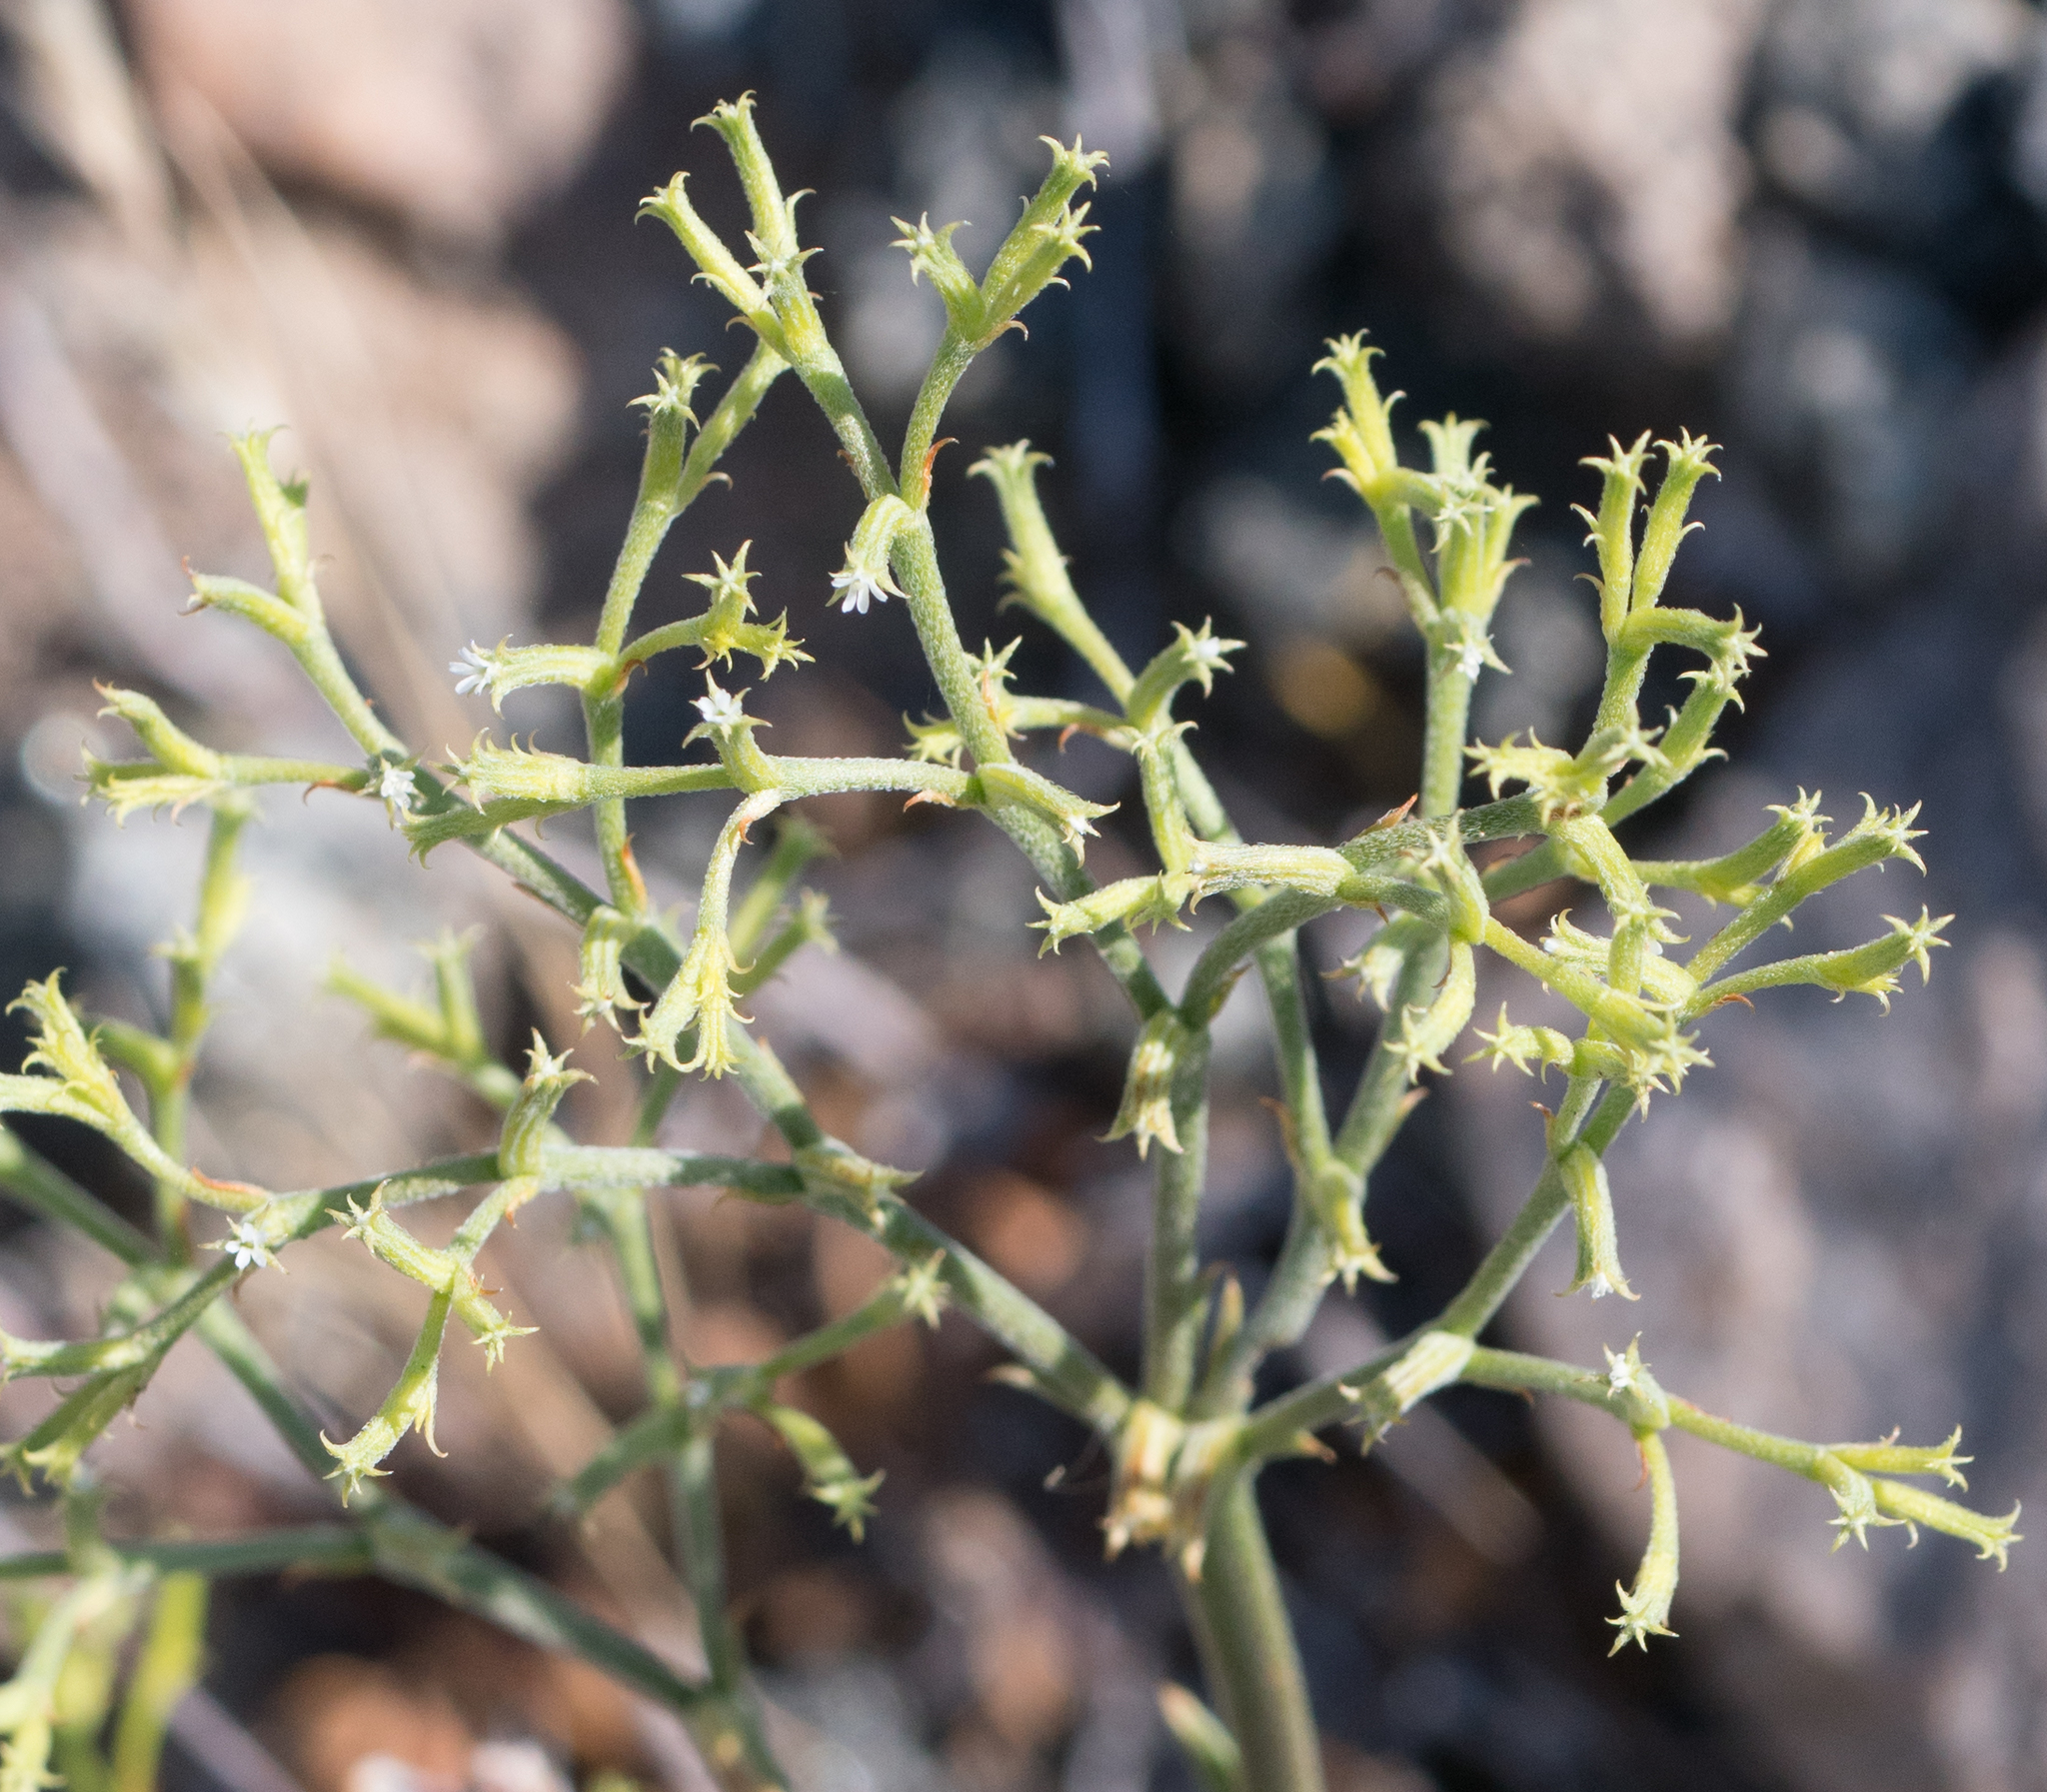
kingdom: Plantae
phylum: Tracheophyta
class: Magnoliopsida
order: Caryophyllales
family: Polygonaceae
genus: Chorizanthe
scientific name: Chorizanthe brevicornu
